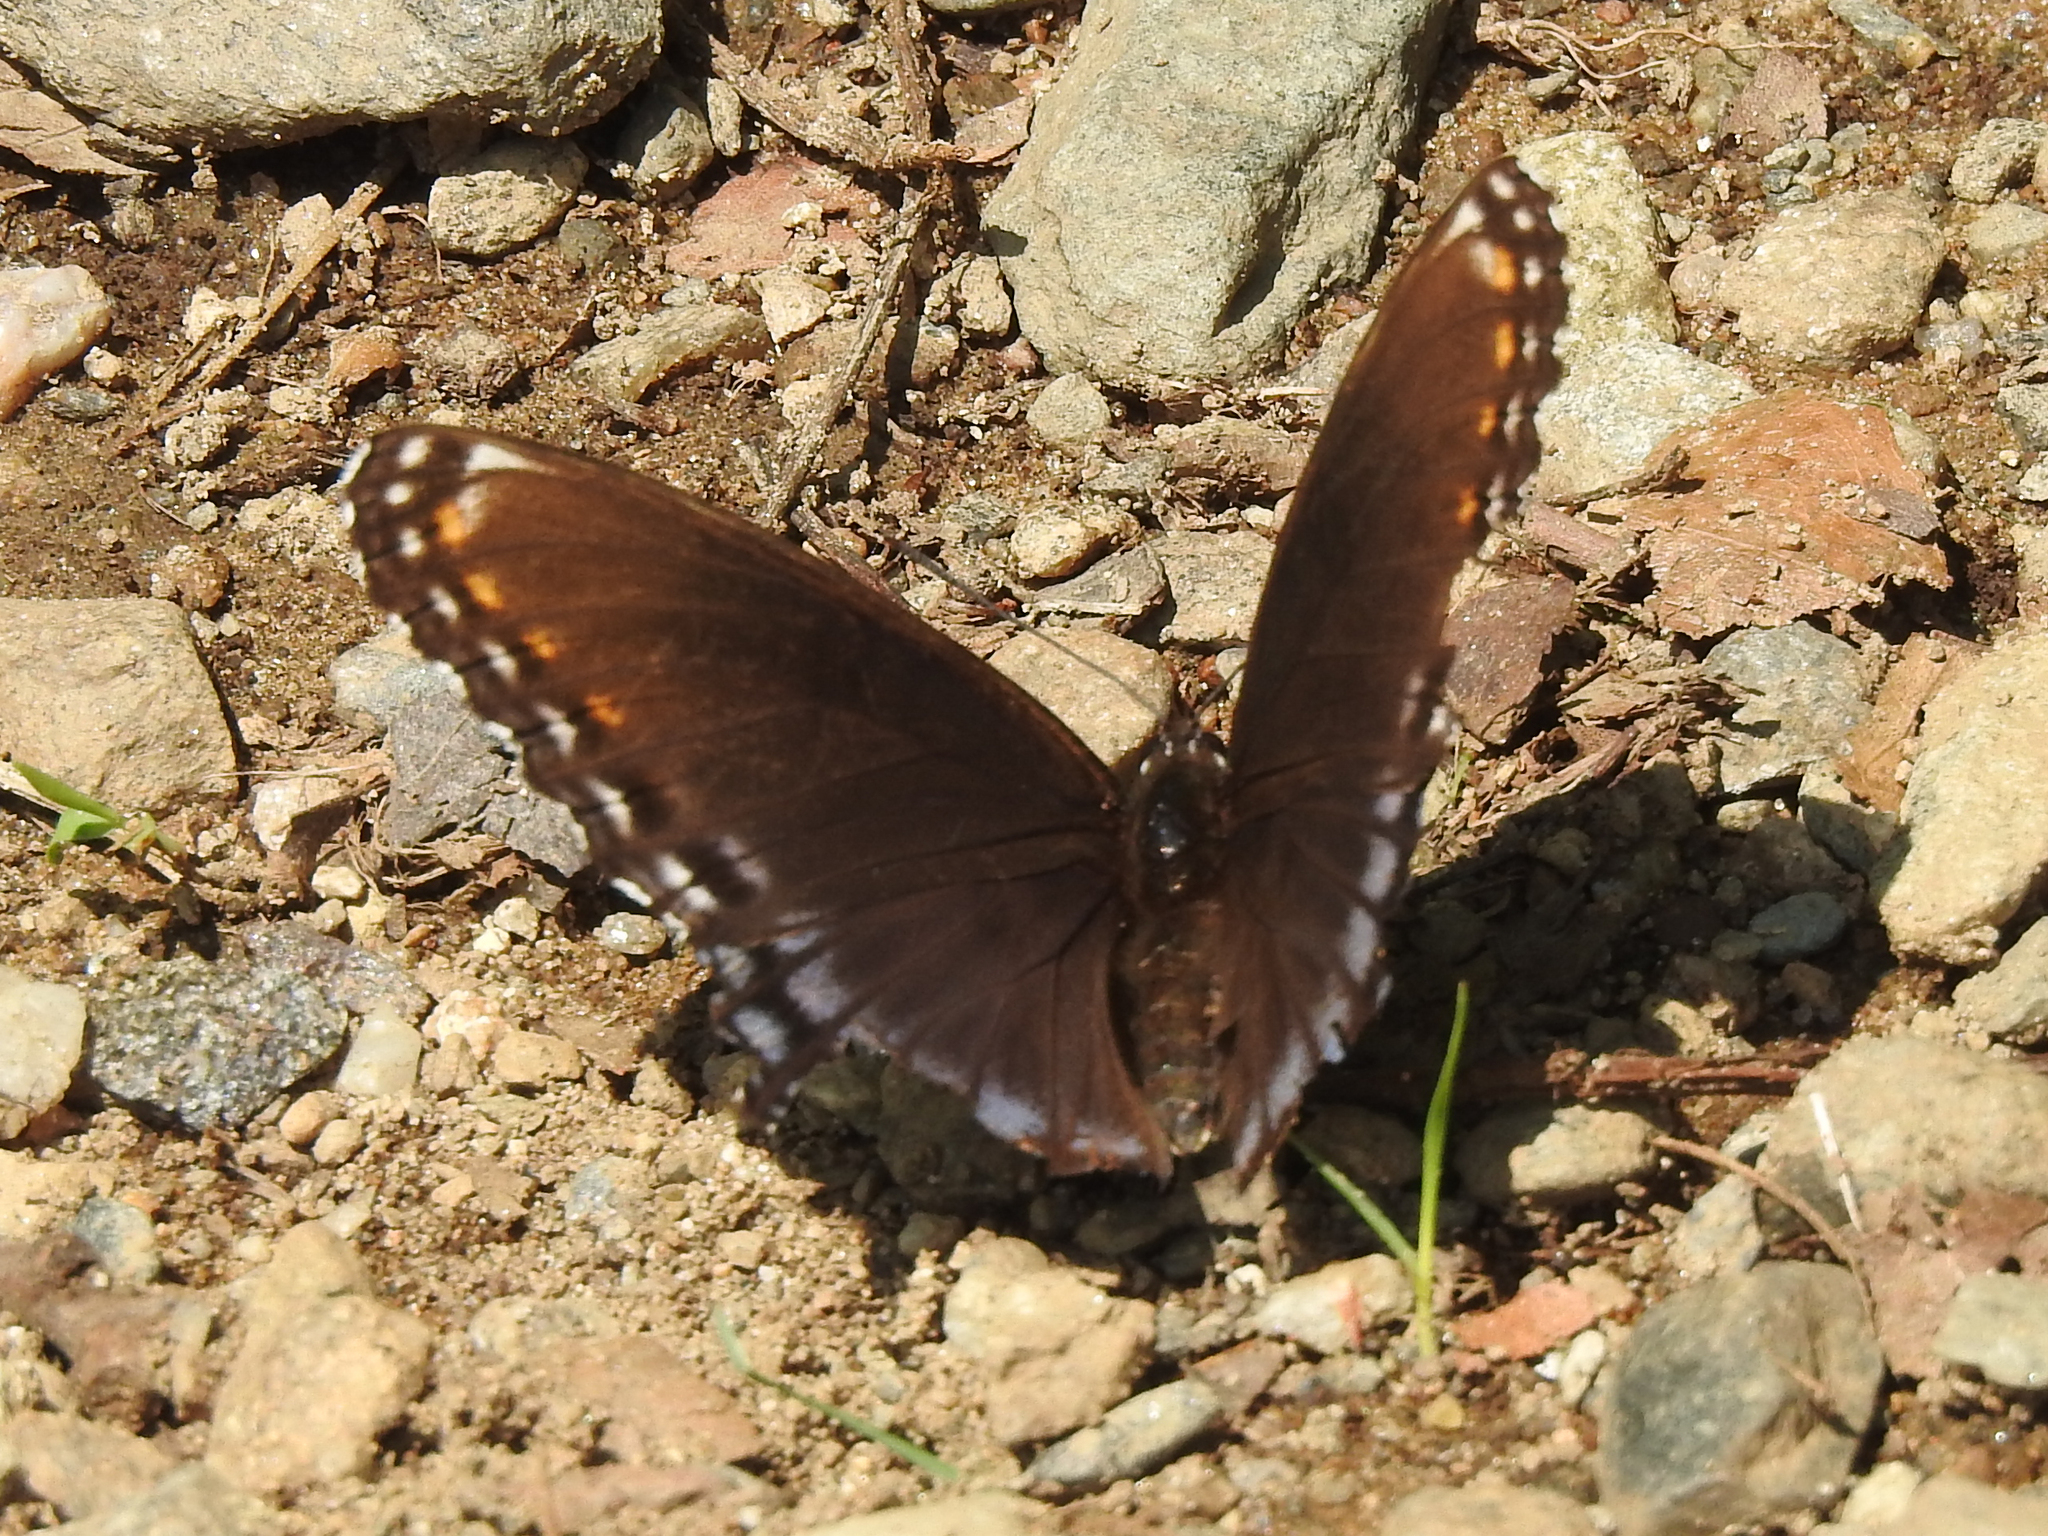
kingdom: Animalia
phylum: Arthropoda
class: Insecta
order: Lepidoptera
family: Nymphalidae
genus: Limenitis
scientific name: Limenitis arthemis
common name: Red-spotted admiral
